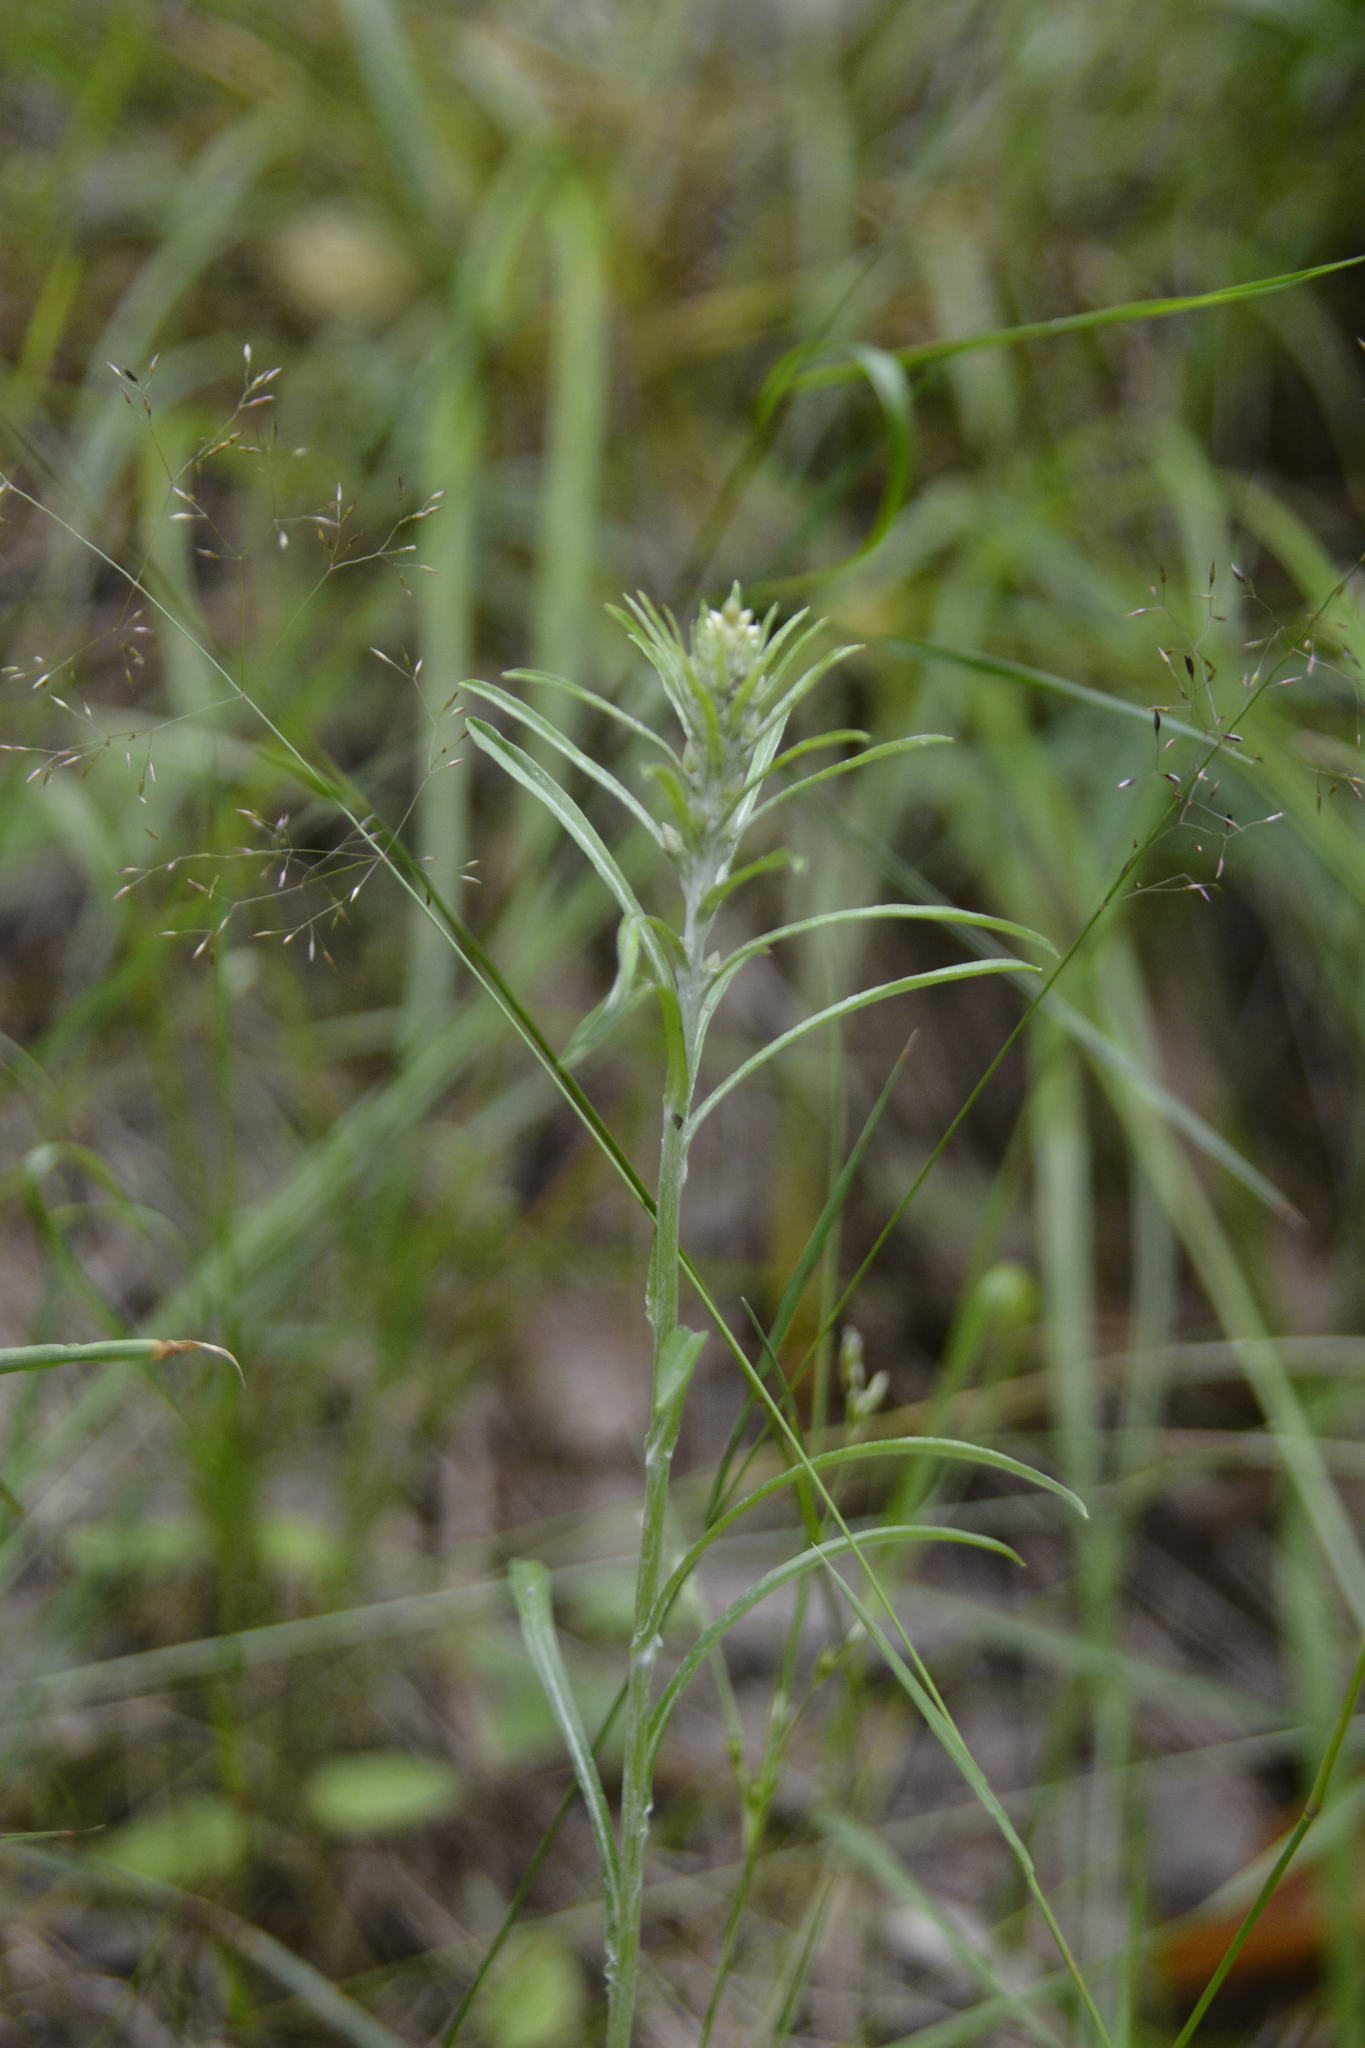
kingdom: Plantae
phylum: Tracheophyta
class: Magnoliopsida
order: Asterales
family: Asteraceae
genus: Omalotheca
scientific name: Omalotheca sylvatica
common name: Heath cudweed
